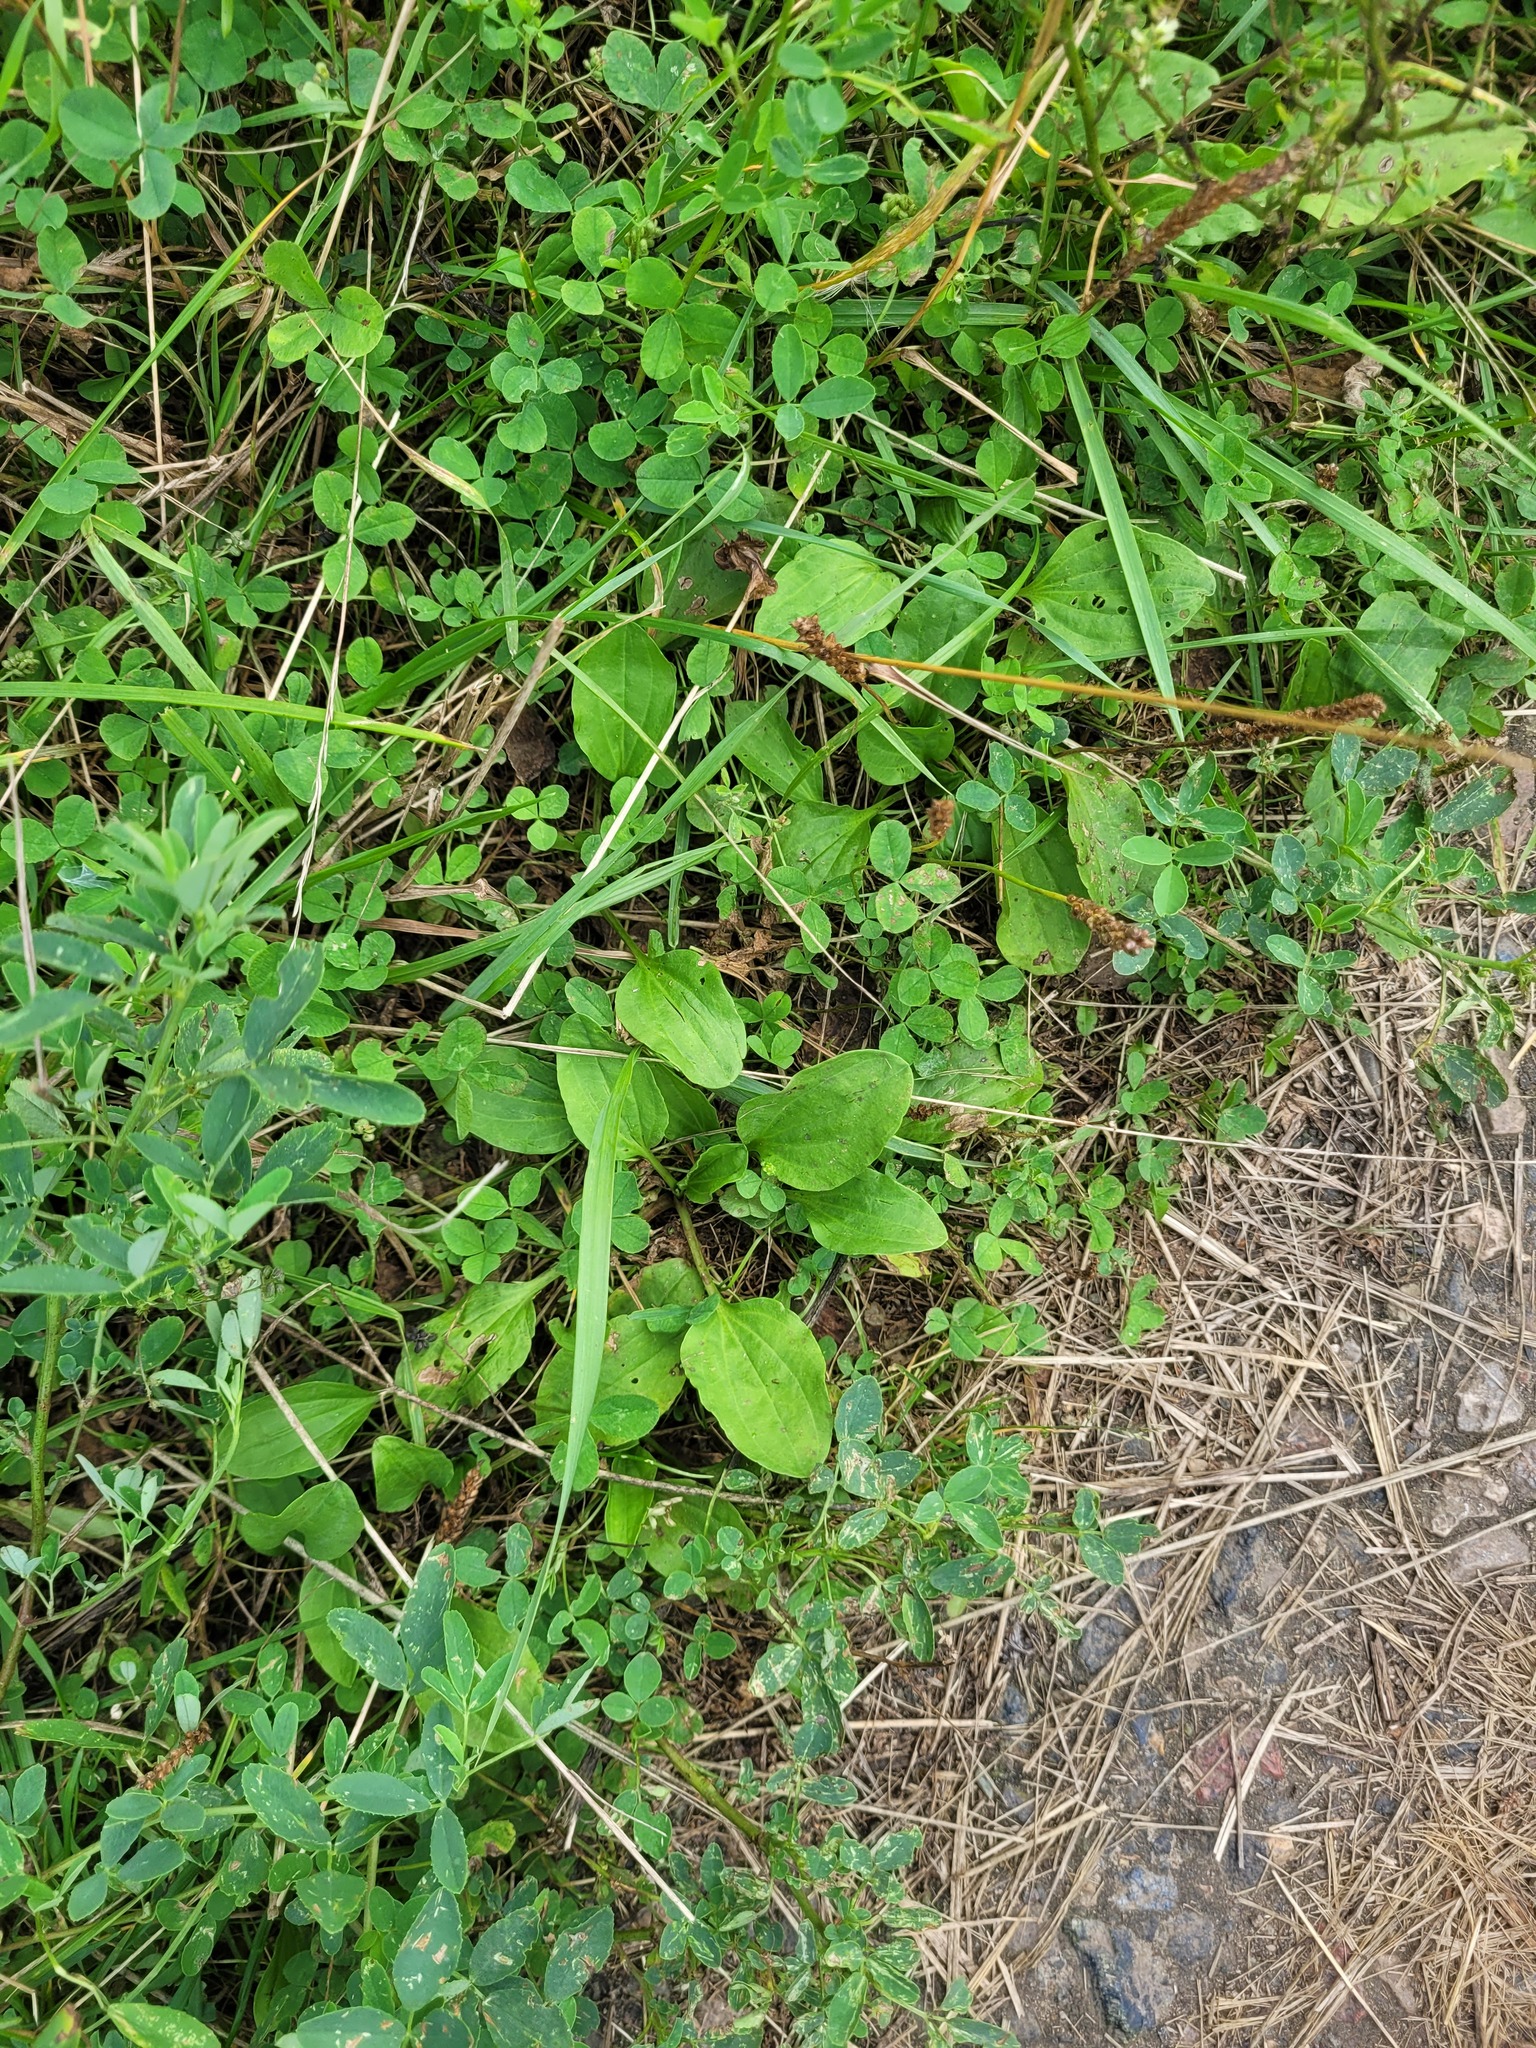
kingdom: Plantae
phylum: Tracheophyta
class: Magnoliopsida
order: Lamiales
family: Plantaginaceae
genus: Plantago
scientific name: Plantago major
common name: Common plantain
